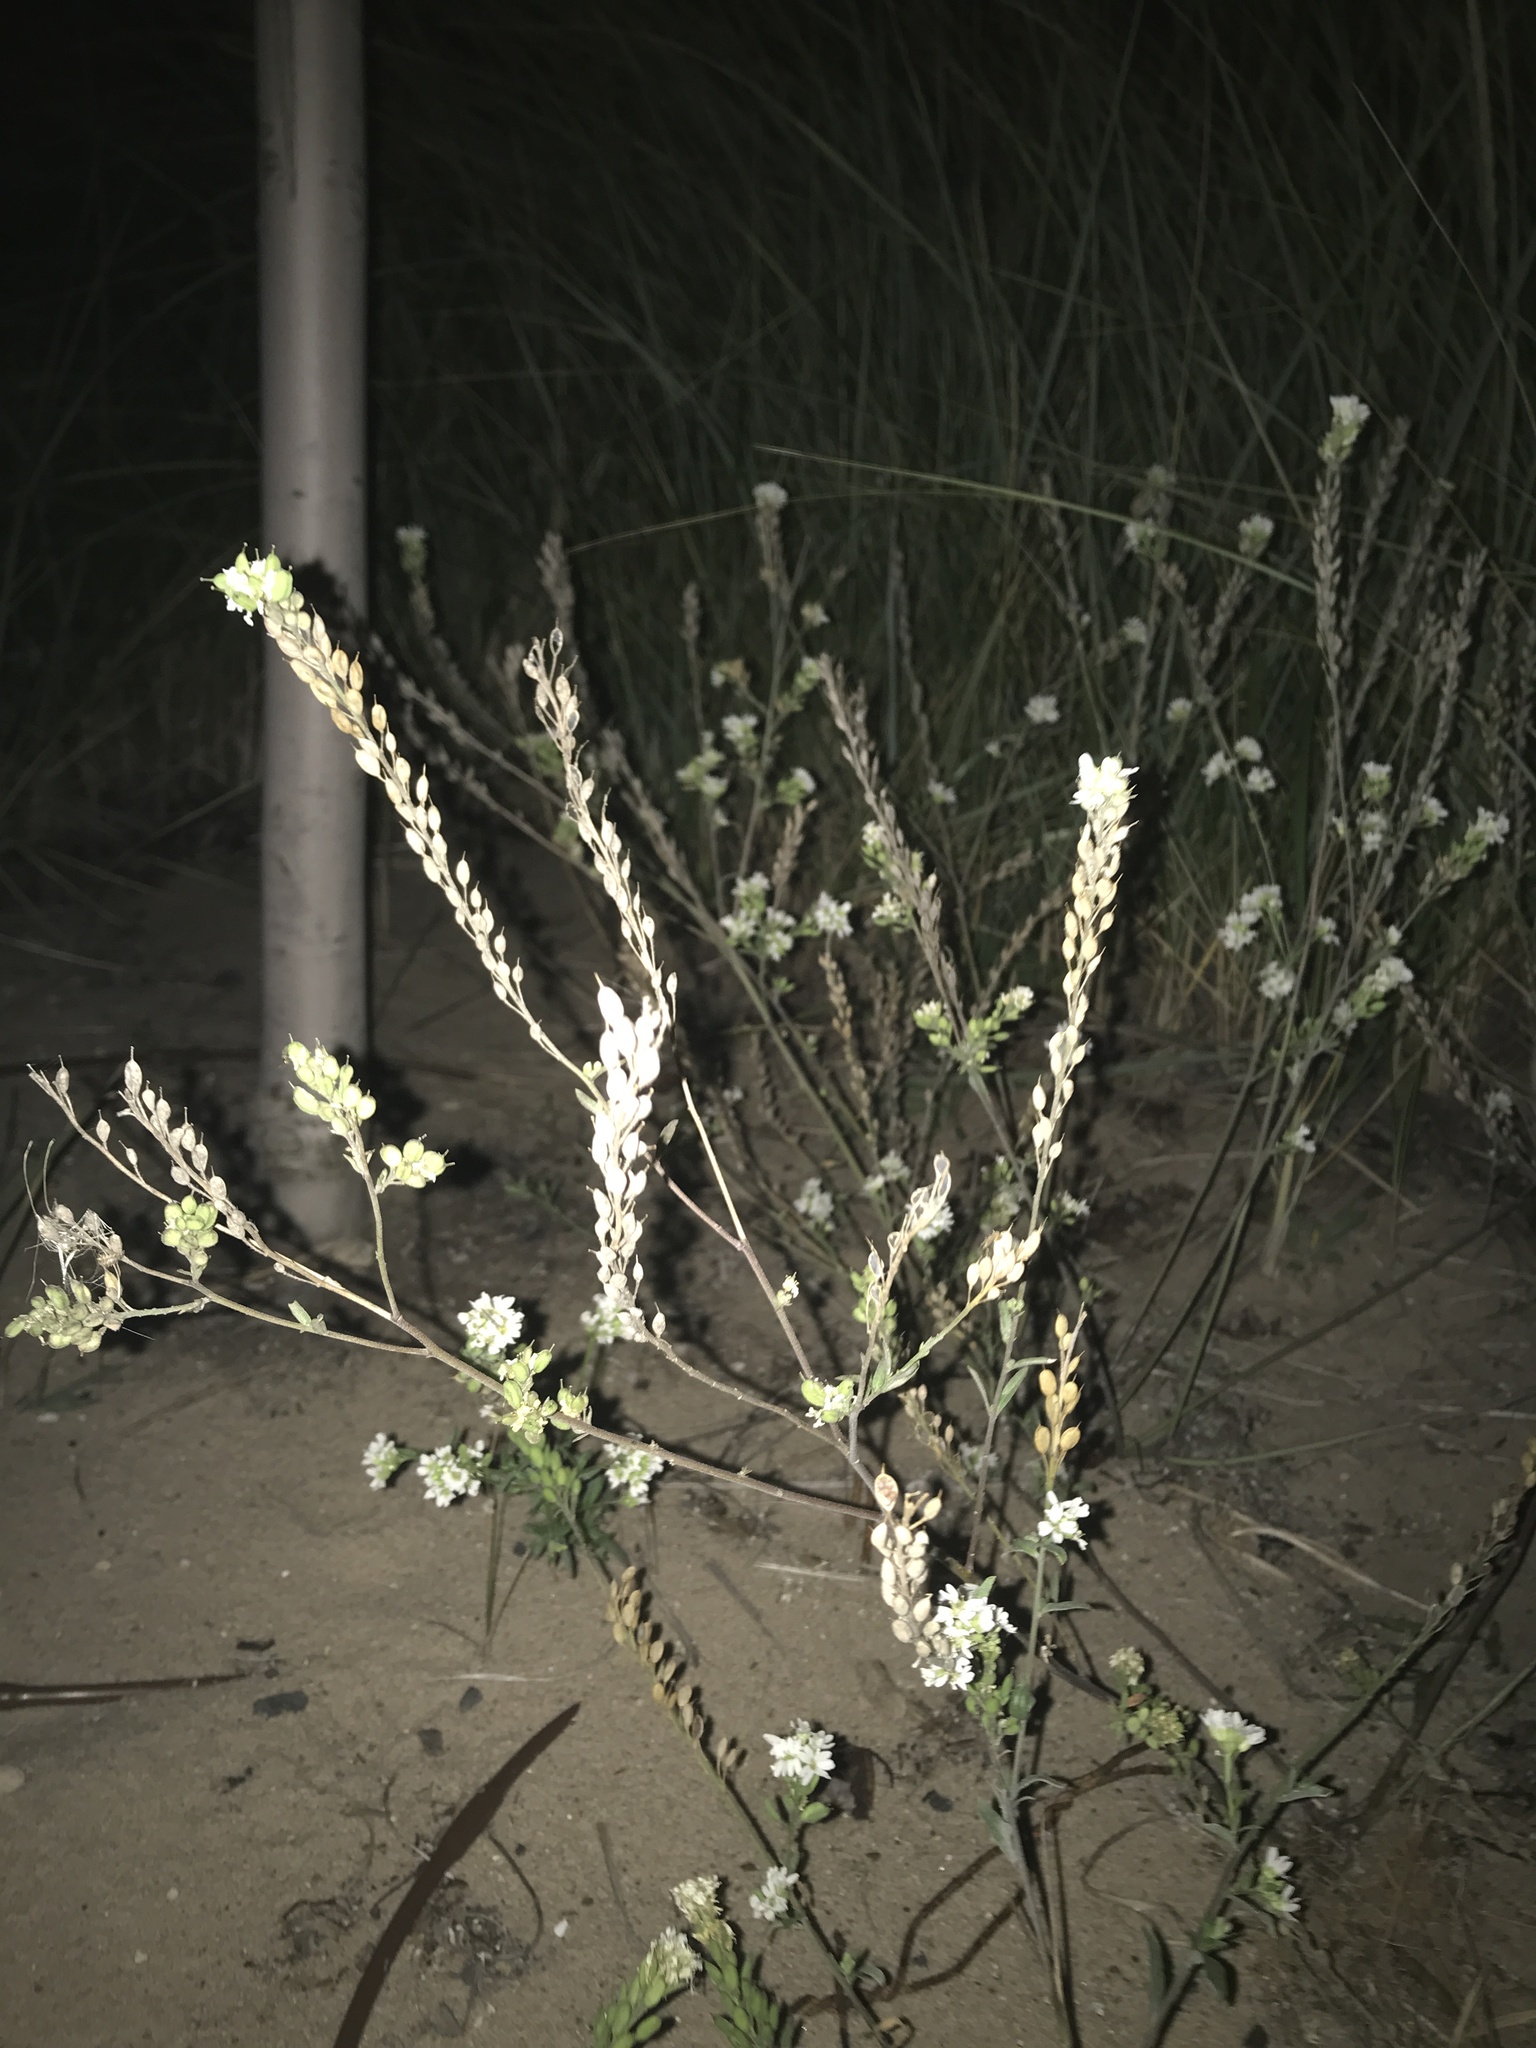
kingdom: Plantae
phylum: Tracheophyta
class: Magnoliopsida
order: Brassicales
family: Brassicaceae
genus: Berteroa
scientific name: Berteroa incana
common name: Hoary alison
